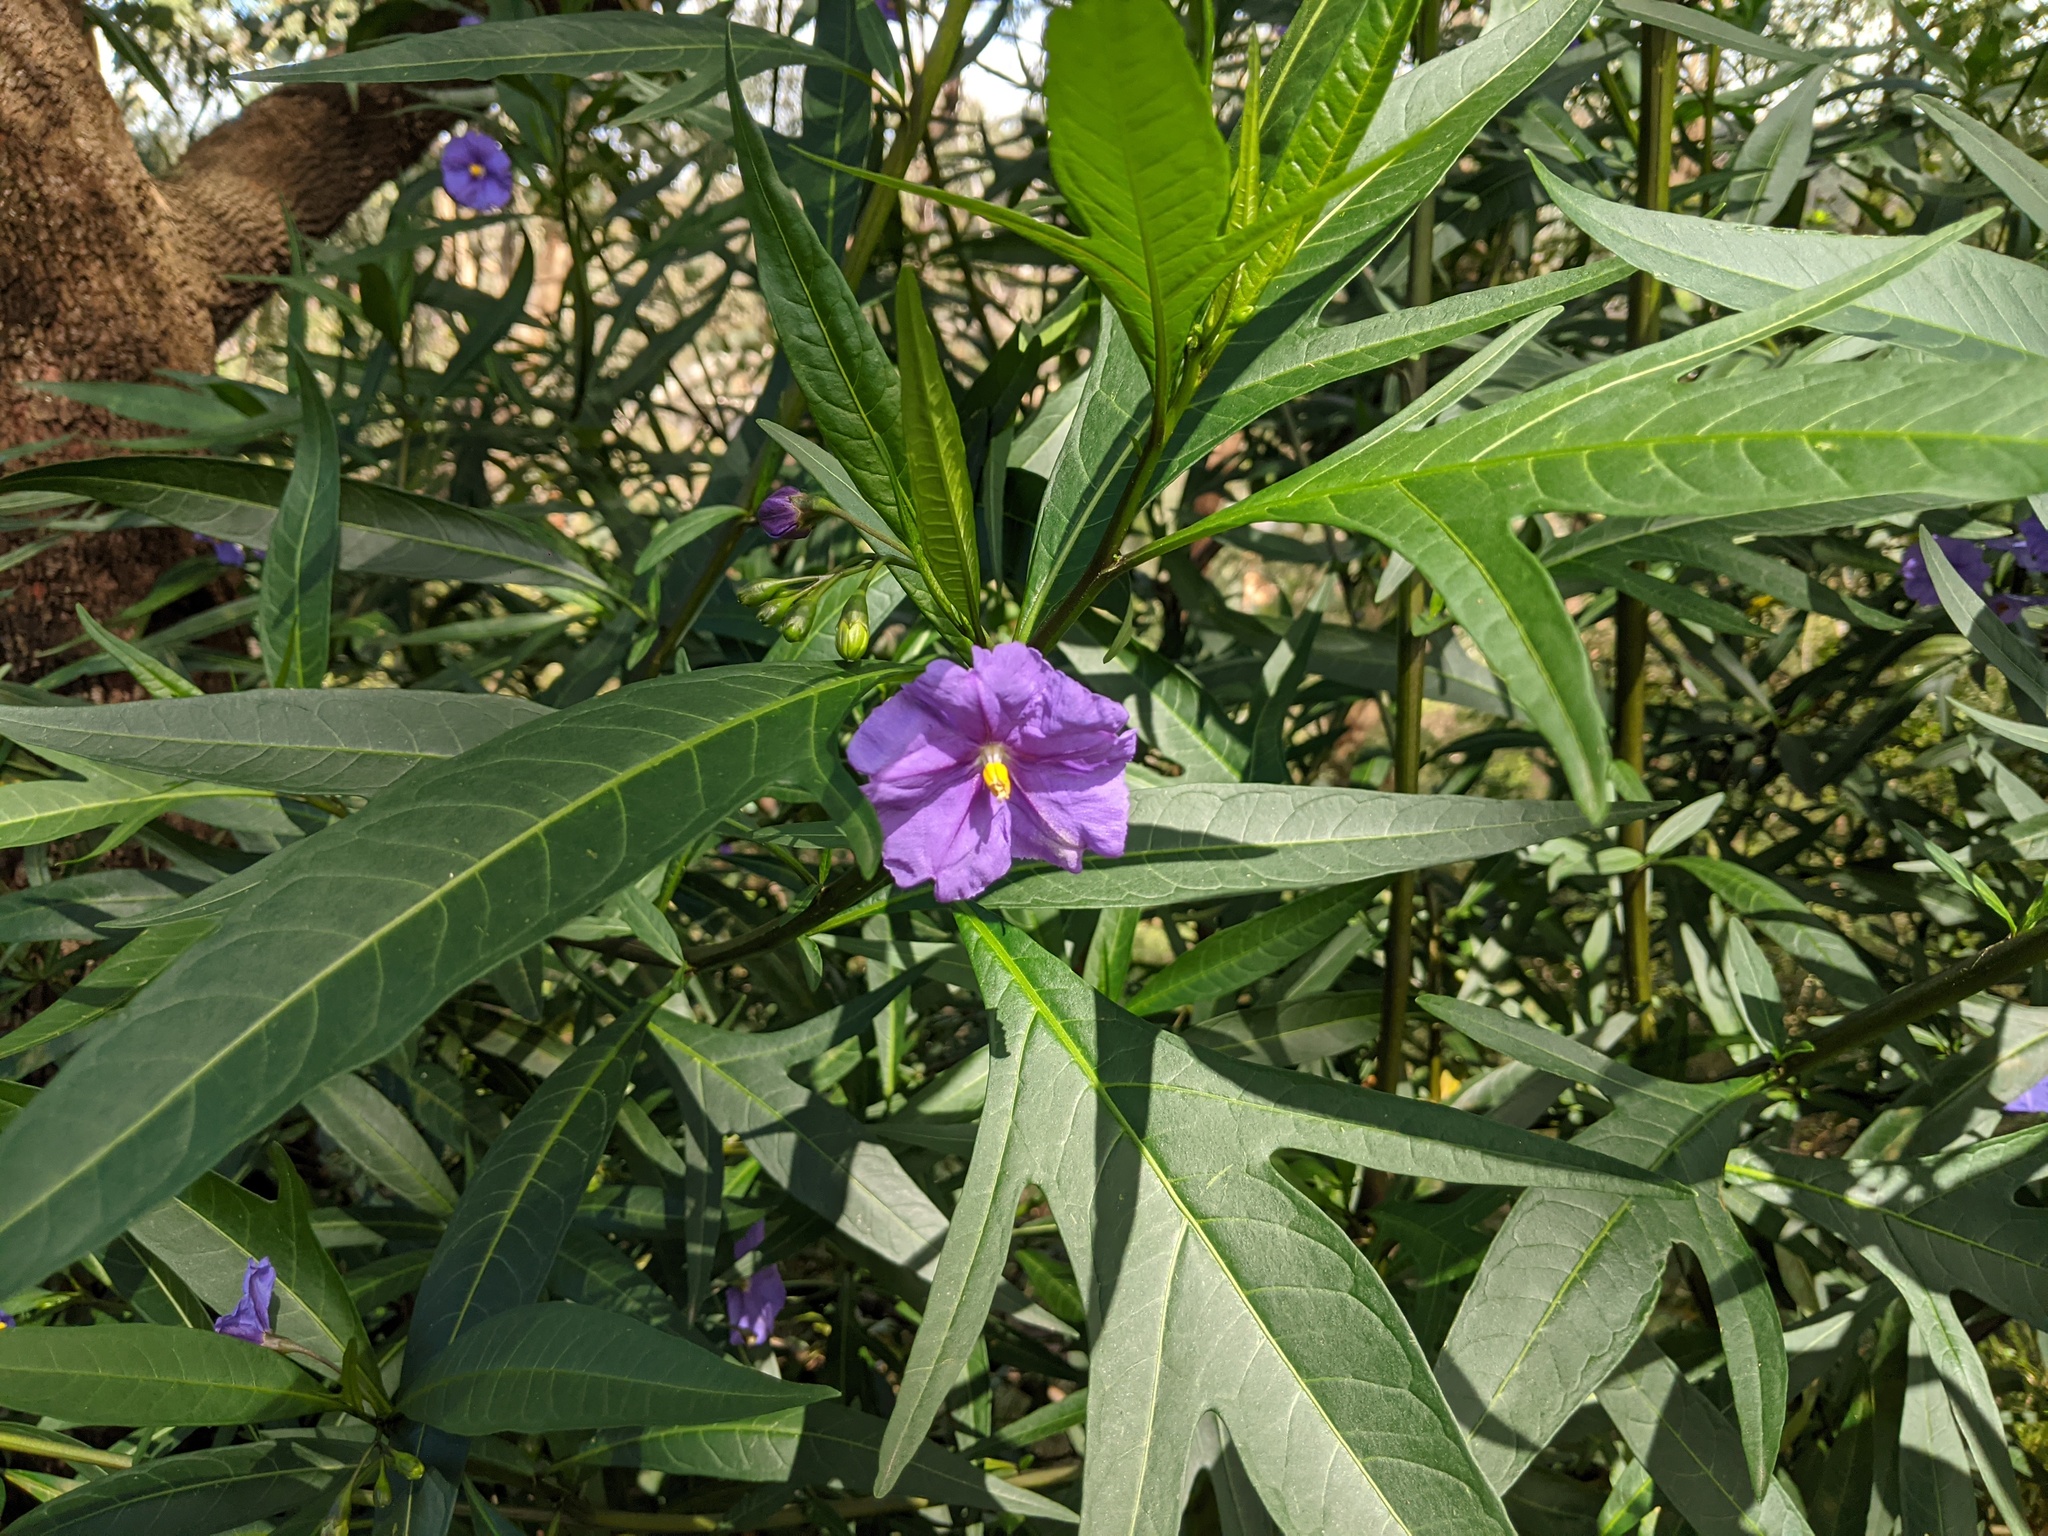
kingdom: Plantae
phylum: Tracheophyta
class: Magnoliopsida
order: Solanales
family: Solanaceae
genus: Solanum
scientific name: Solanum laciniatum
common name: Kangaroo-apple
